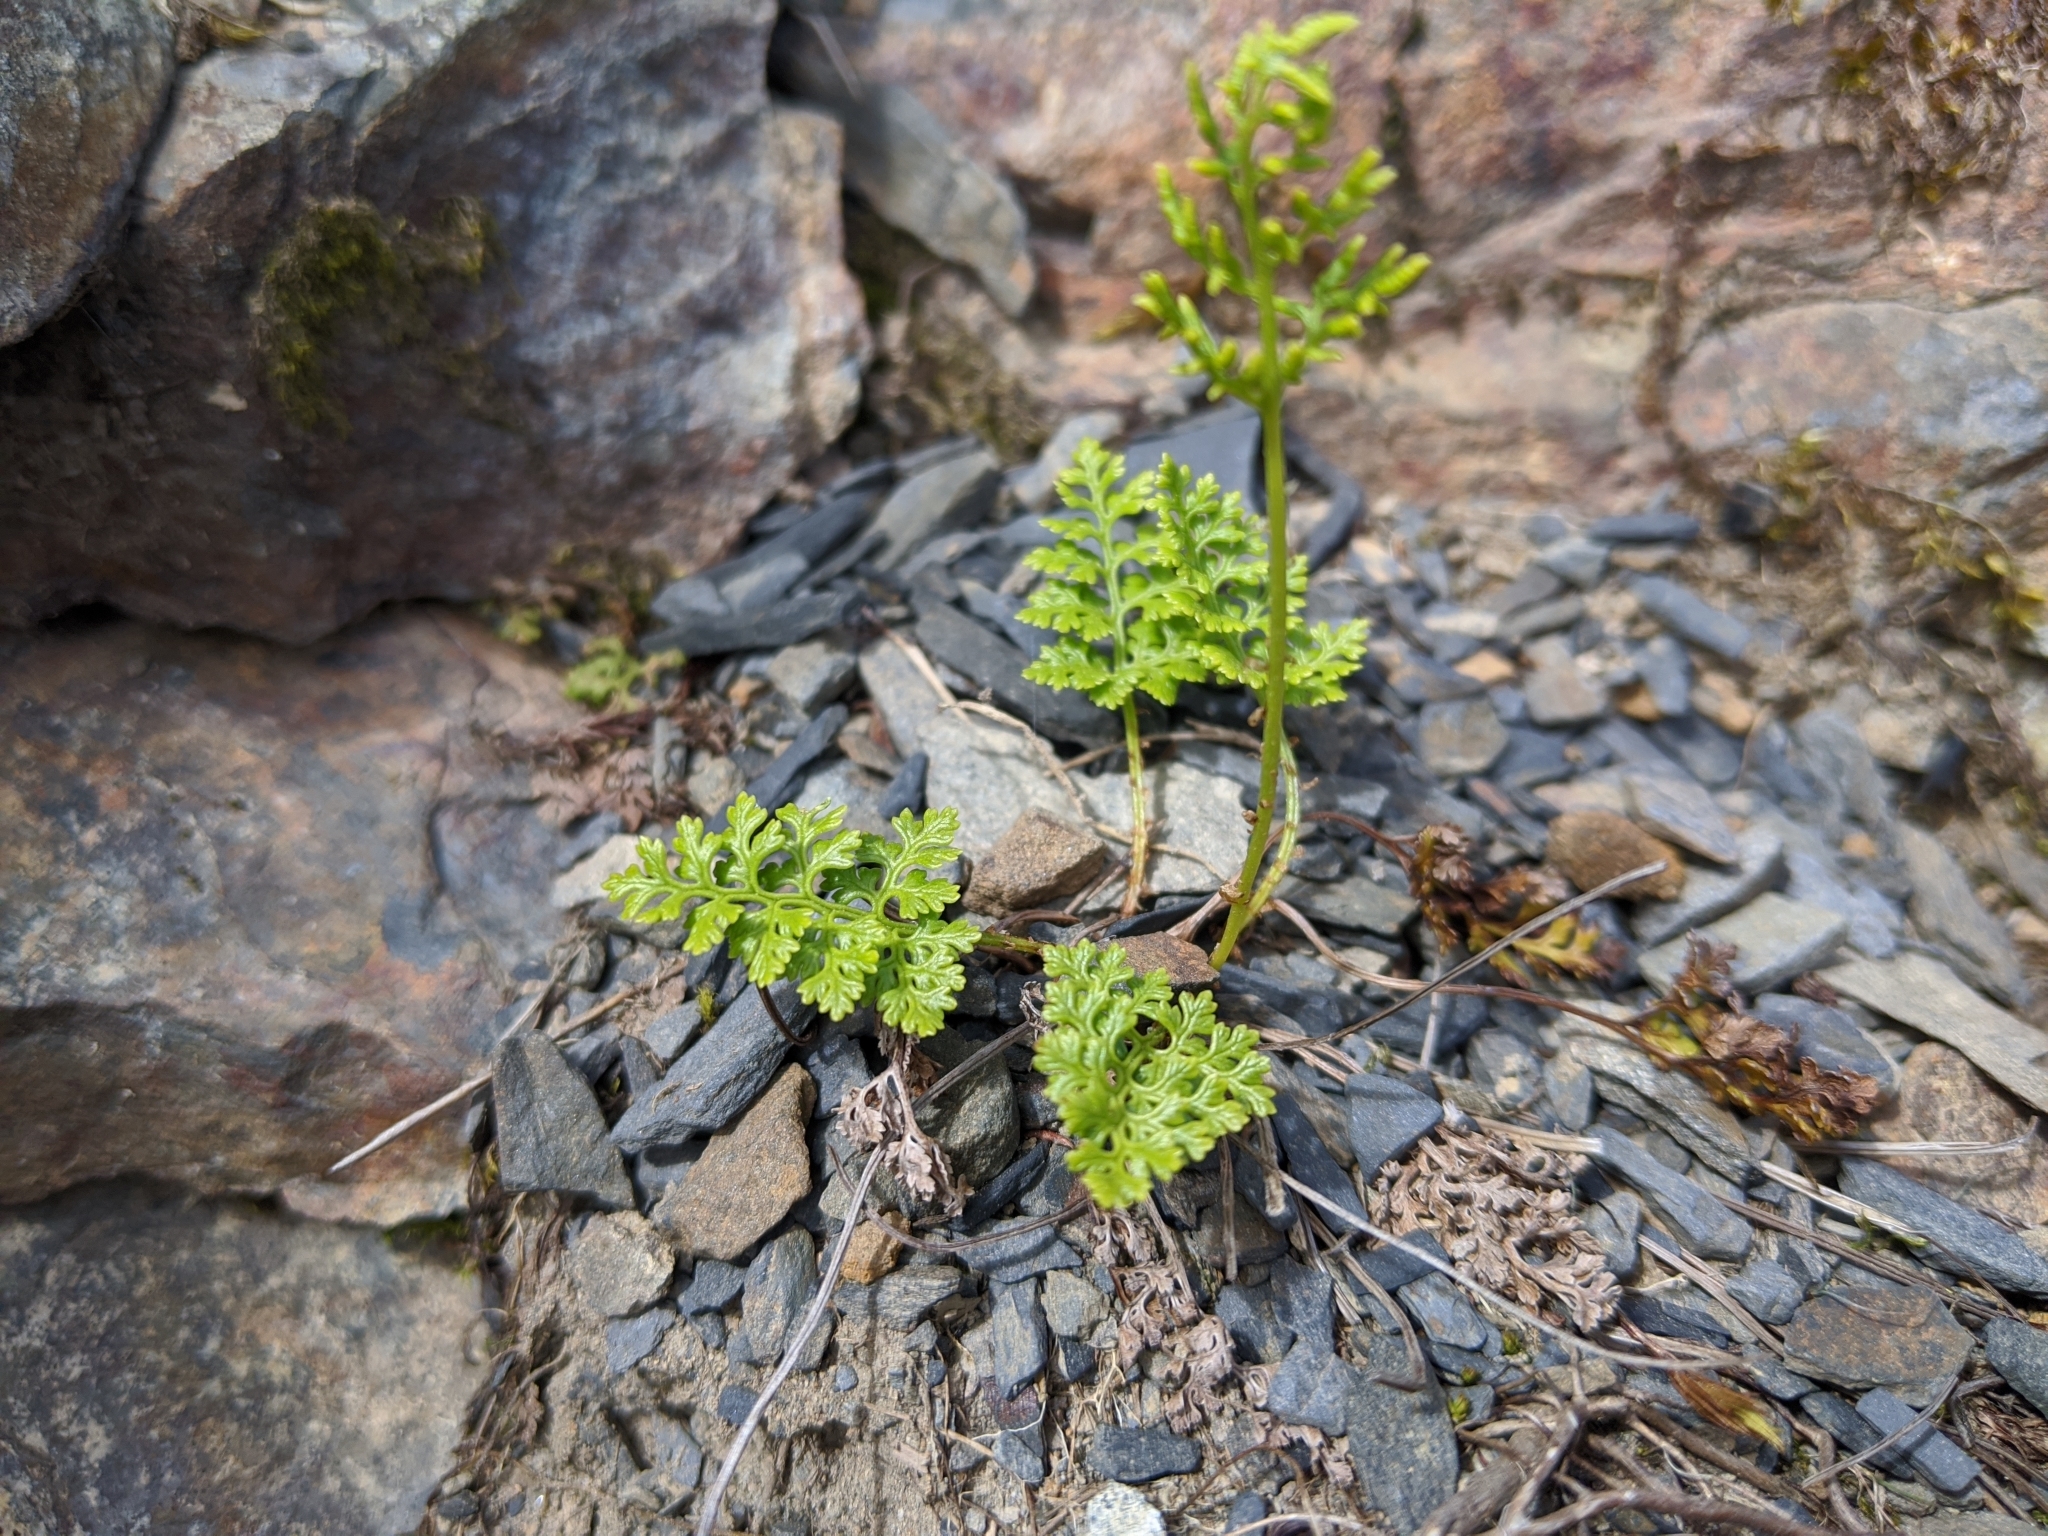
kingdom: Plantae
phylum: Tracheophyta
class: Polypodiopsida
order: Polypodiales
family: Pteridaceae
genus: Cryptogramma
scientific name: Cryptogramma brunoniana
